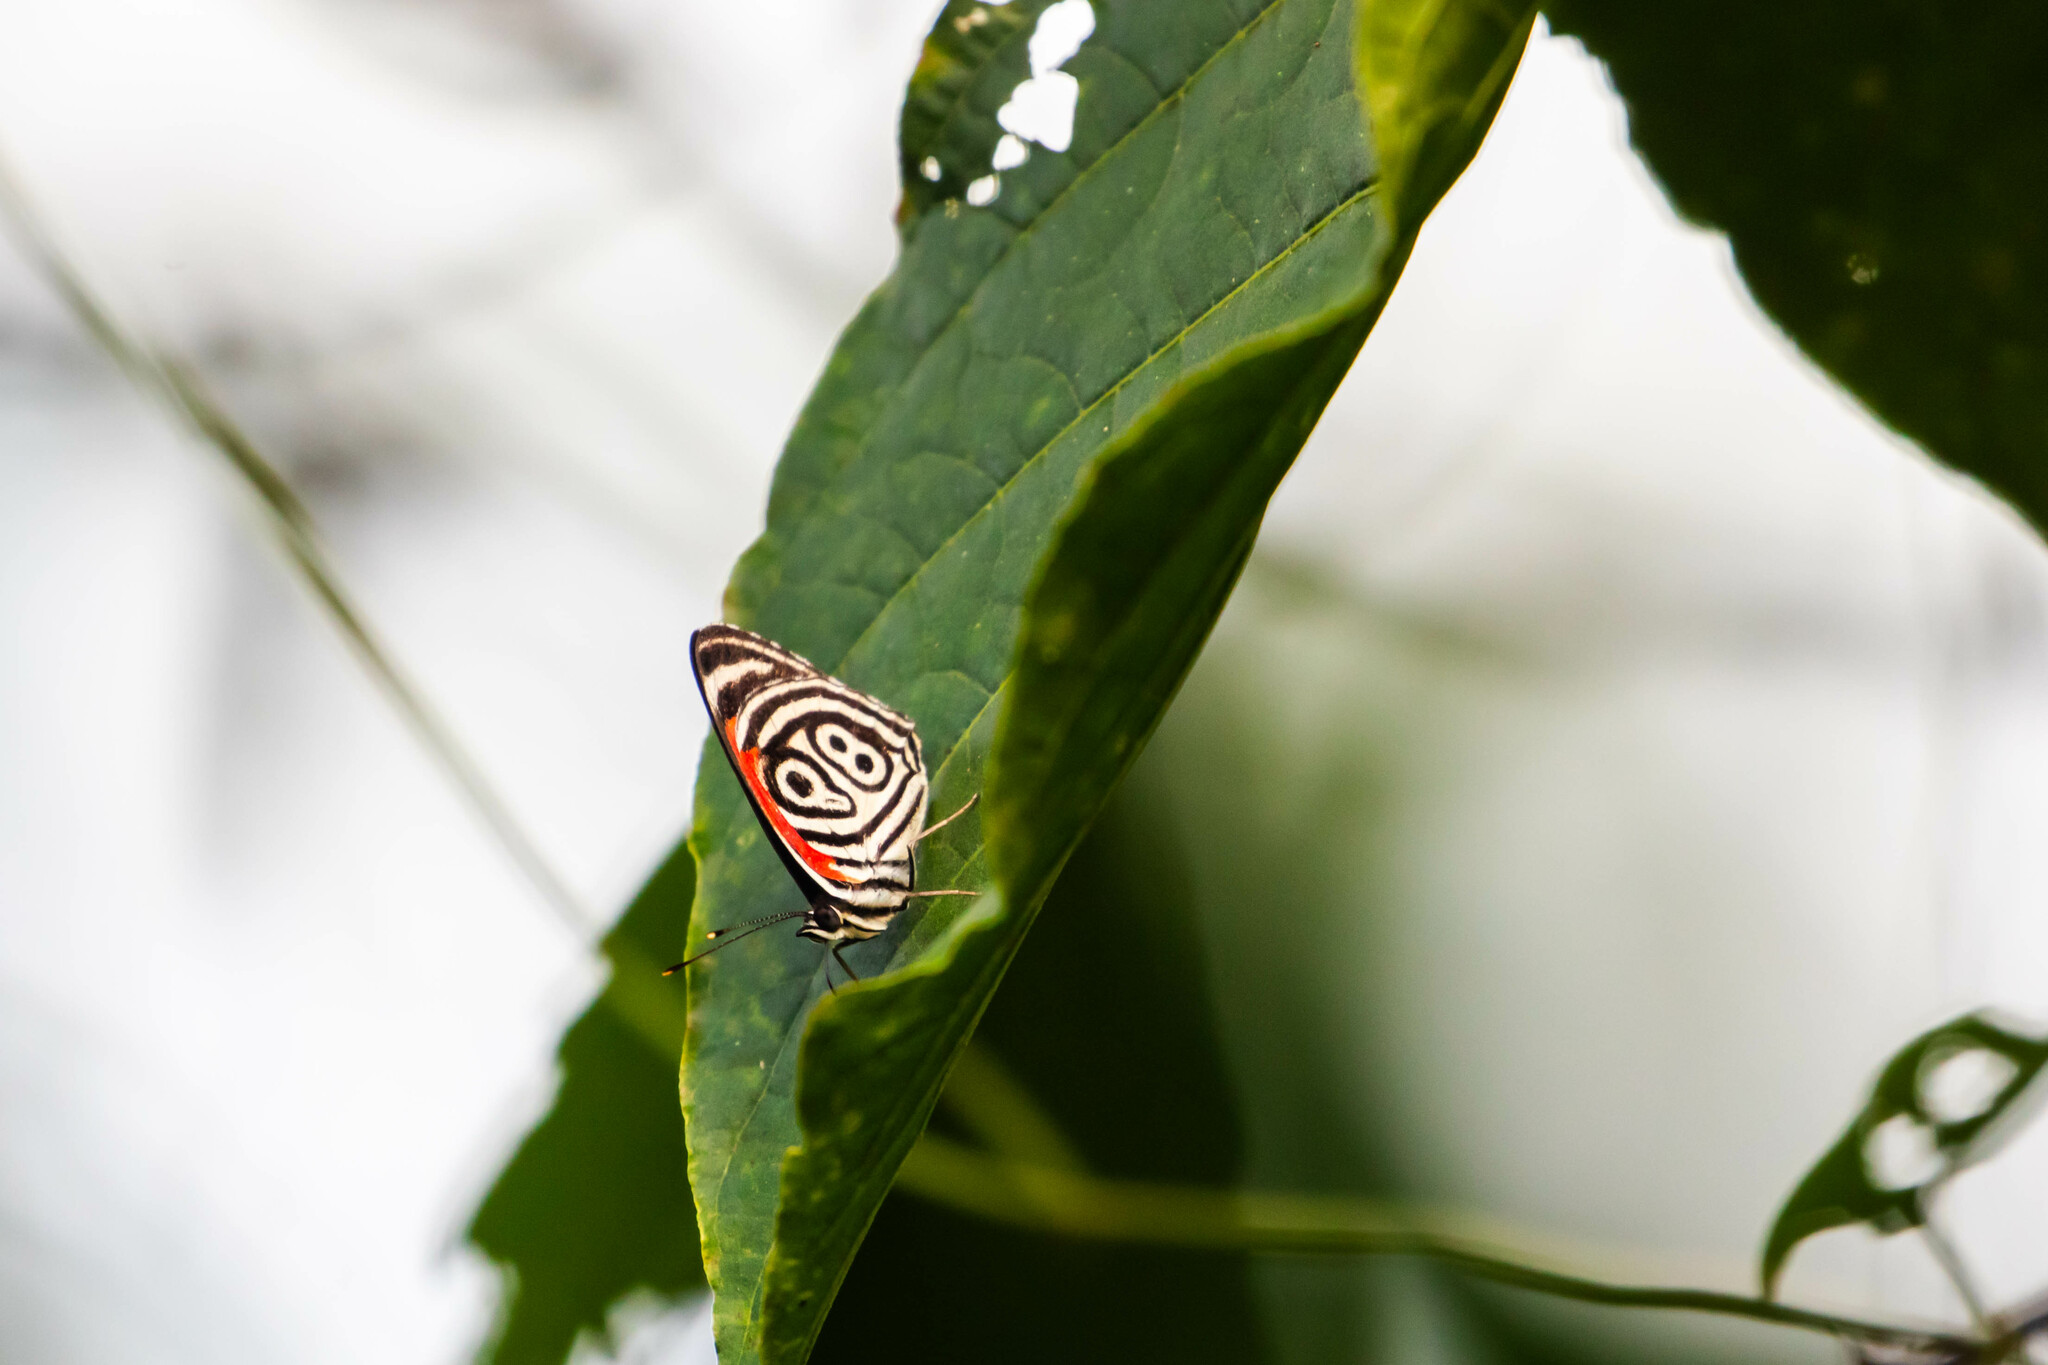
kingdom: Animalia
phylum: Arthropoda
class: Insecta
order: Lepidoptera
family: Nymphalidae
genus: Diaethria
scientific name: Diaethria clymena
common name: Widespread eighty-eight
